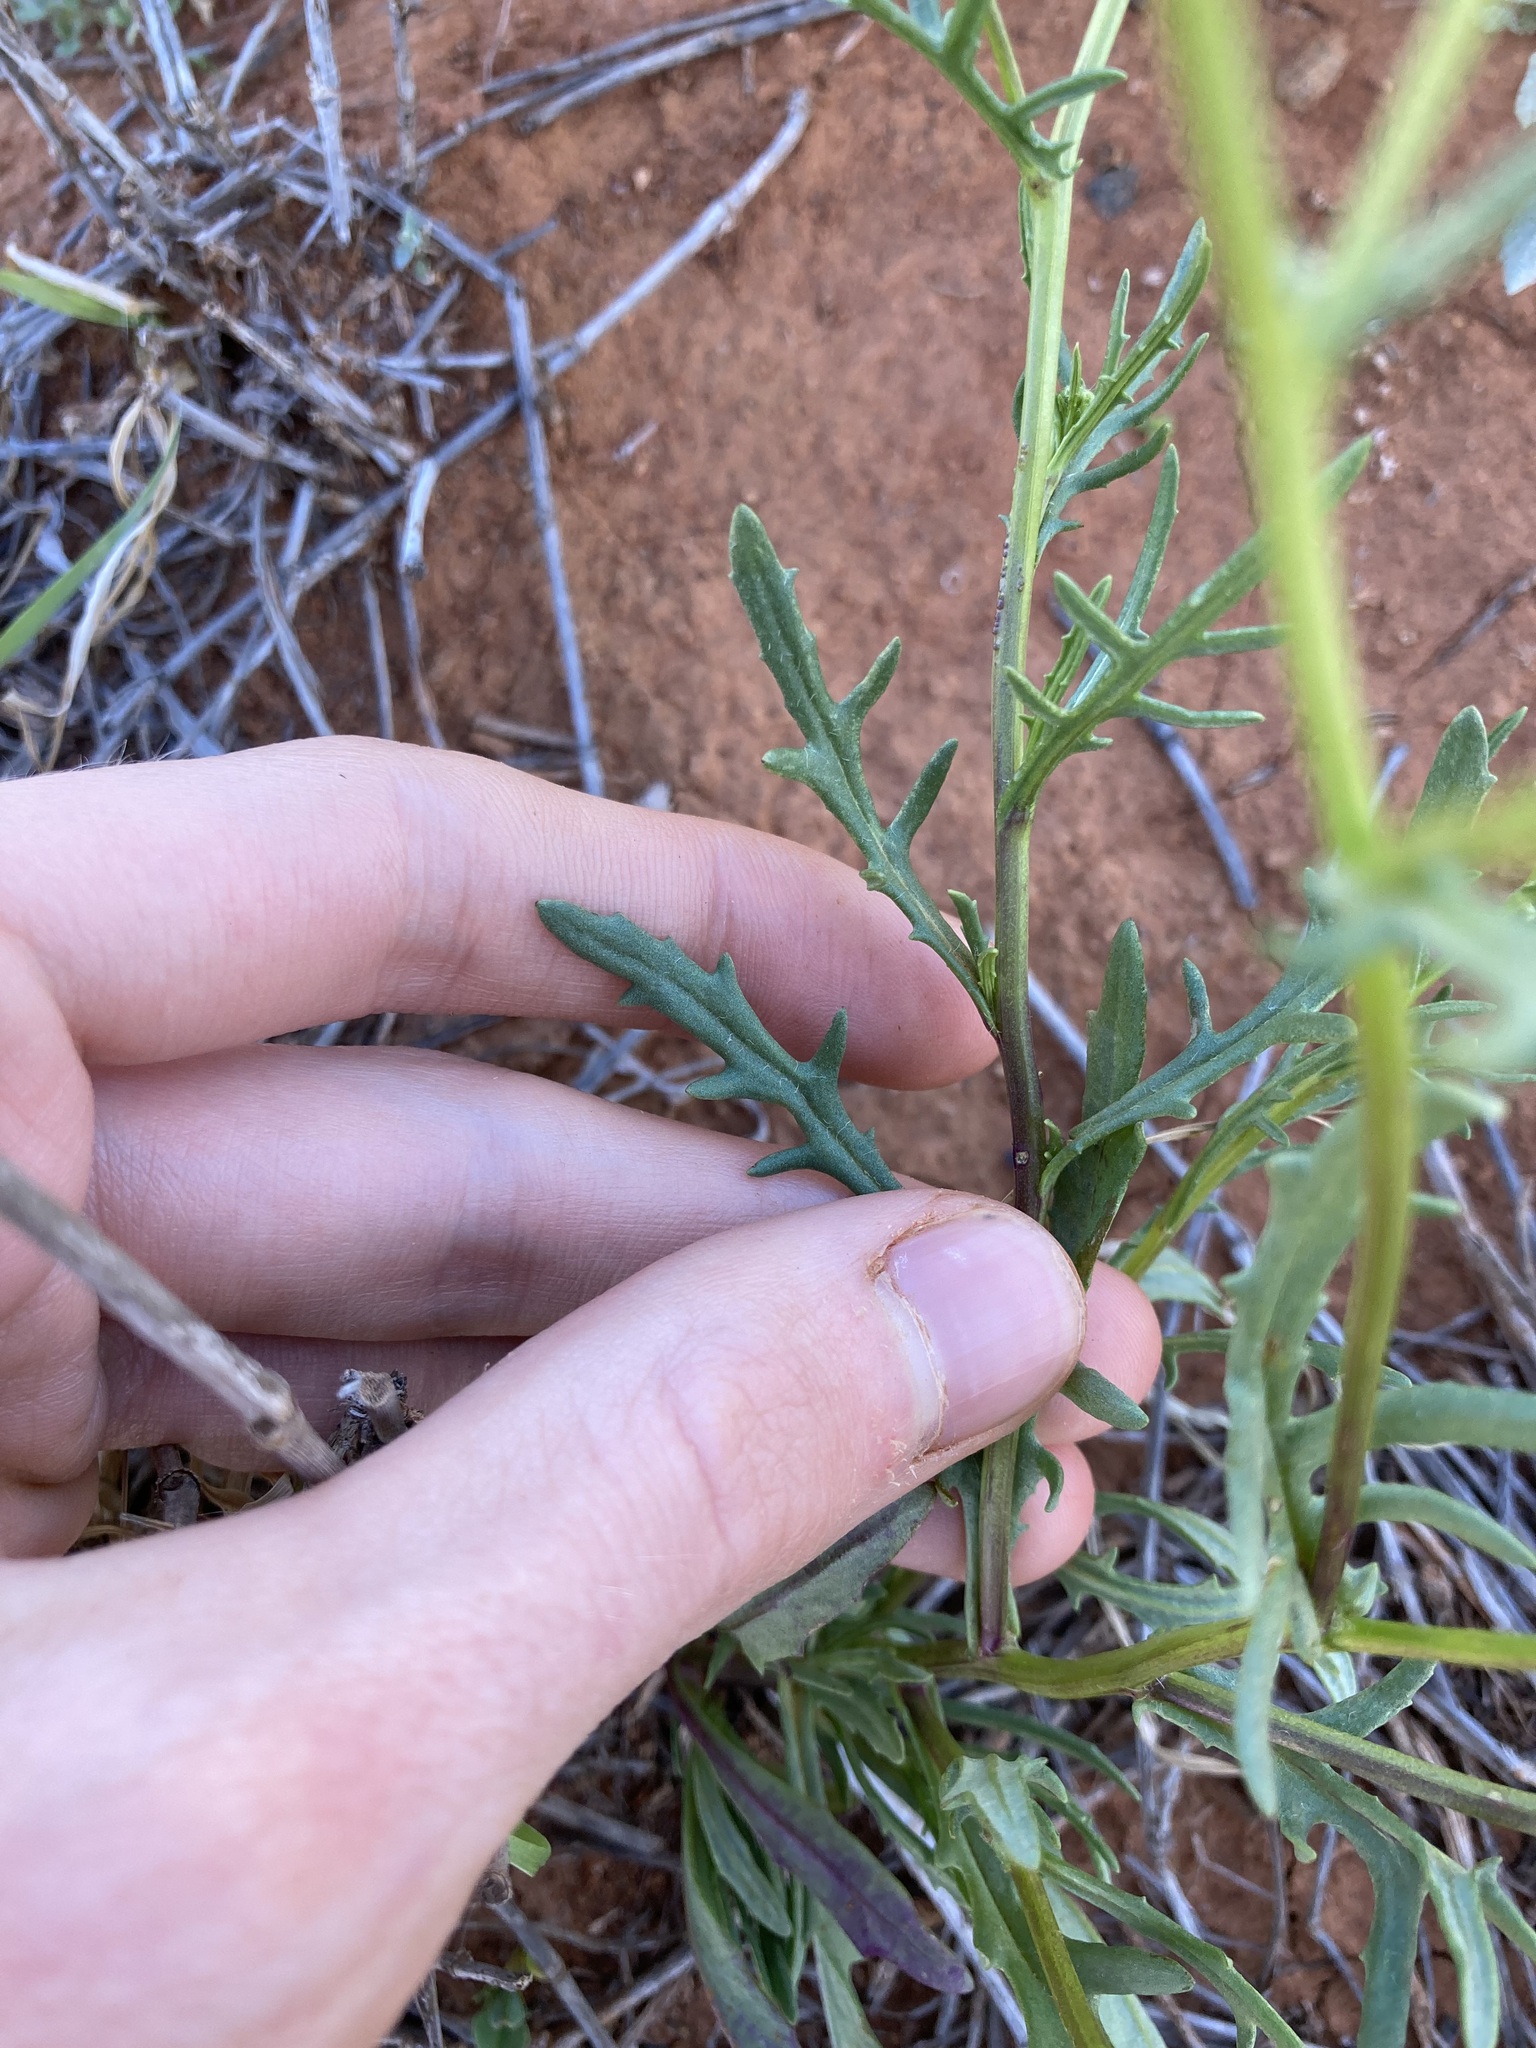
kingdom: Plantae
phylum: Tracheophyta
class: Magnoliopsida
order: Asterales
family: Asteraceae
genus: Senecio
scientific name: Senecio lacustrinus
